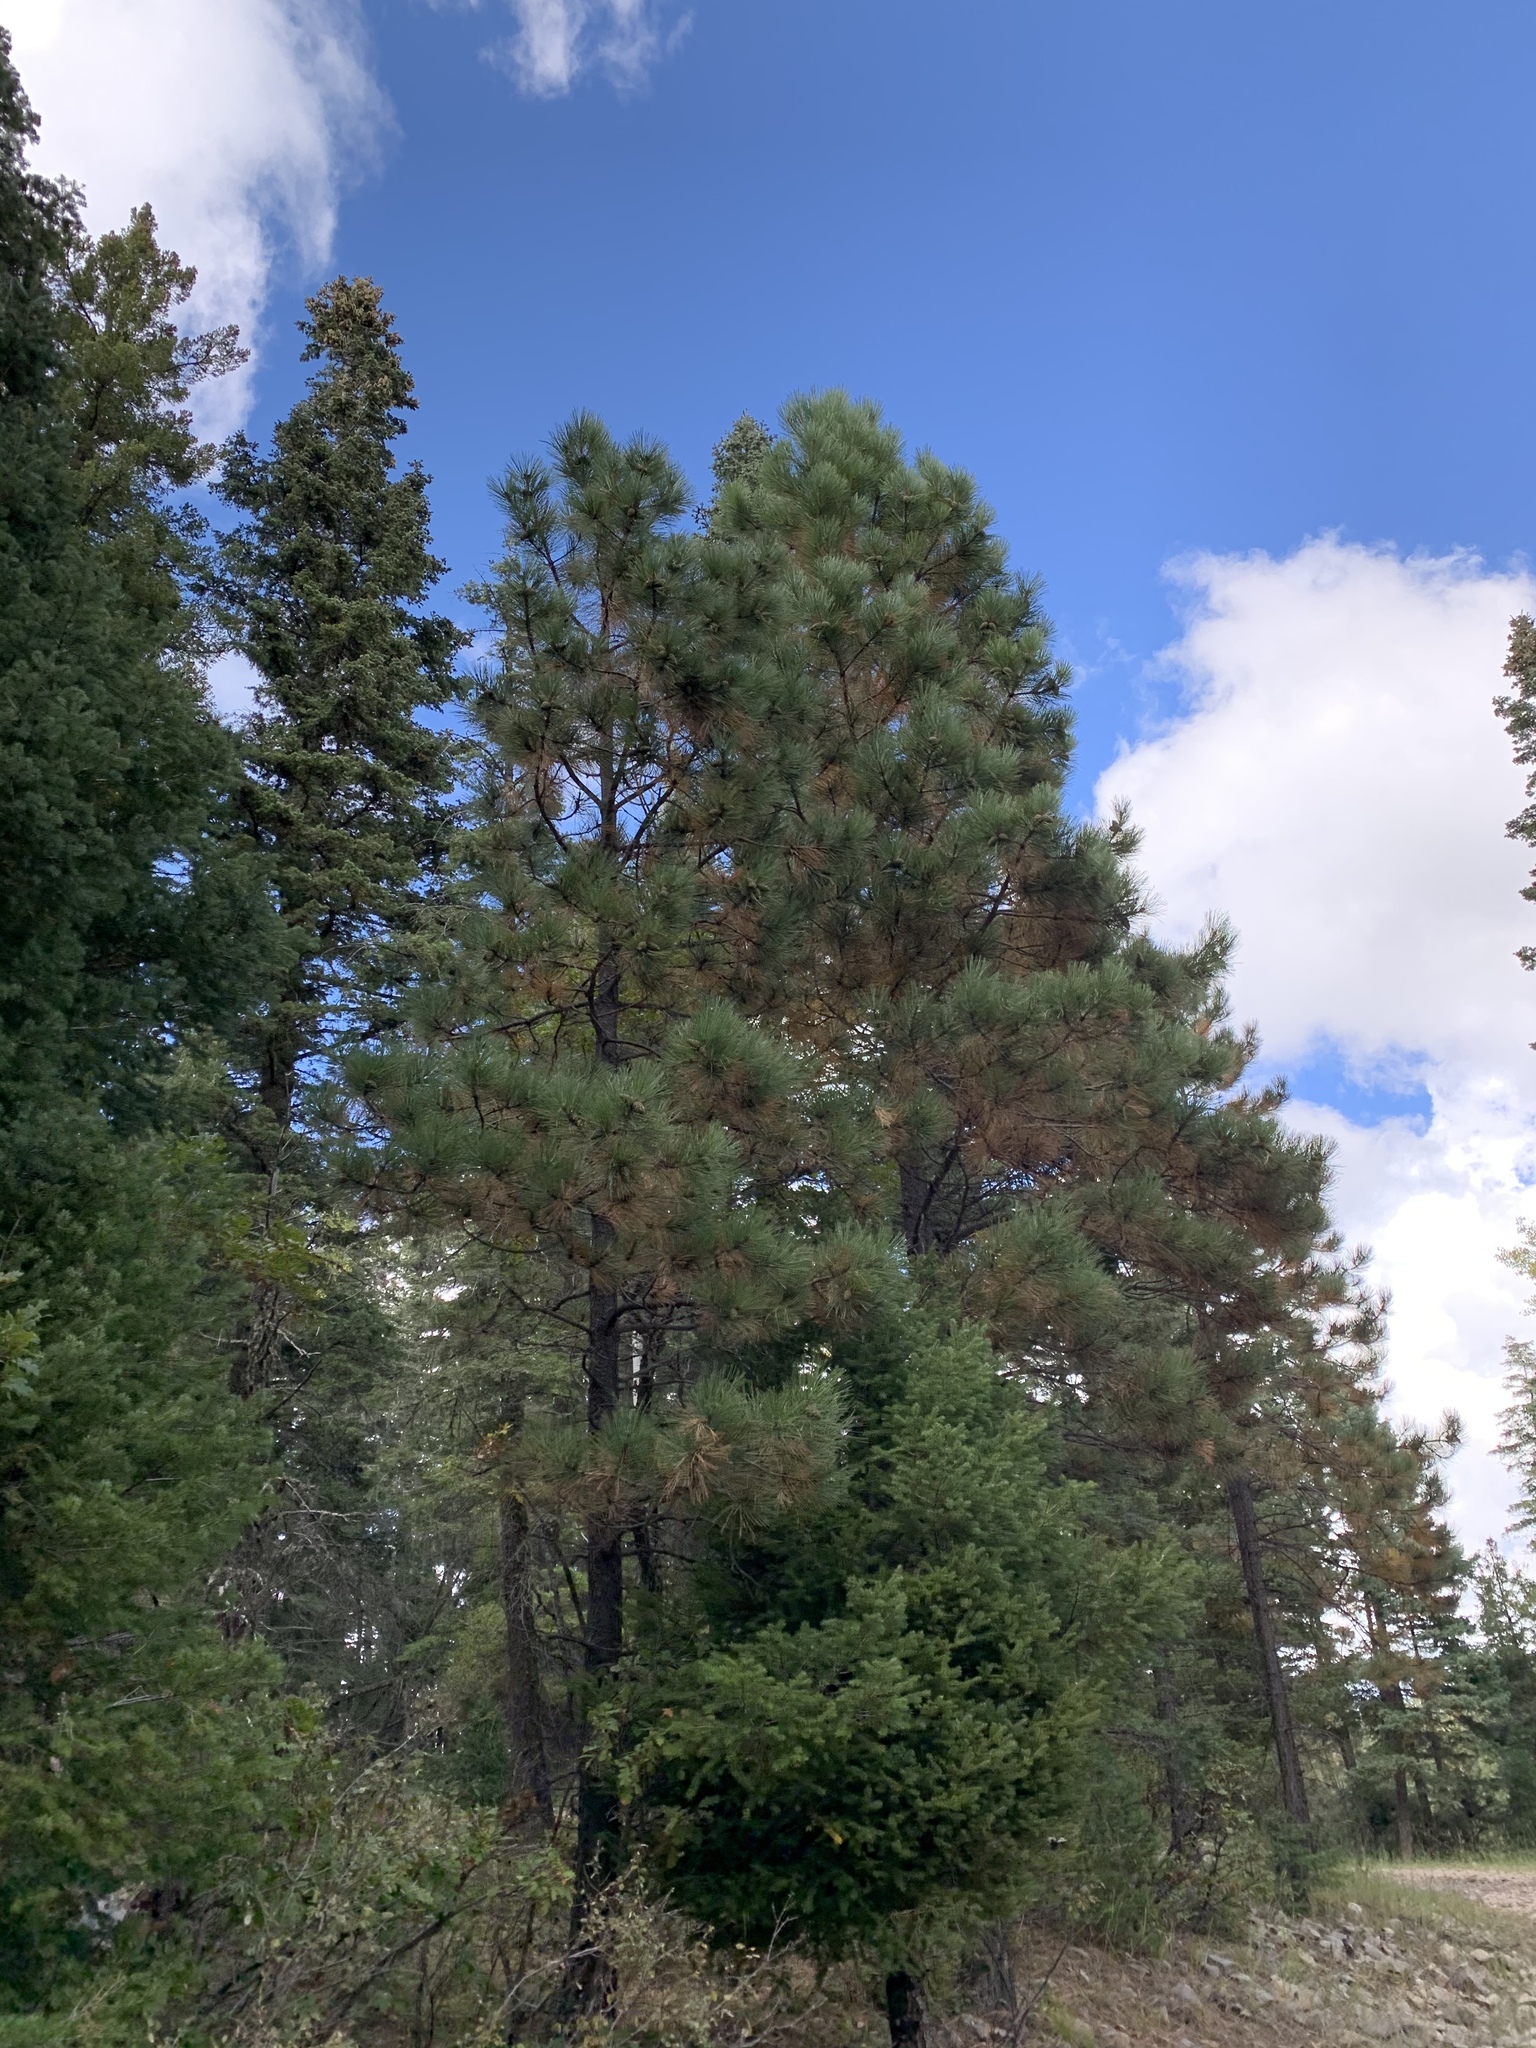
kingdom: Plantae
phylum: Tracheophyta
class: Pinopsida
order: Pinales
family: Pinaceae
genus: Pinus
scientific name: Pinus ponderosa
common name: Western yellow-pine
